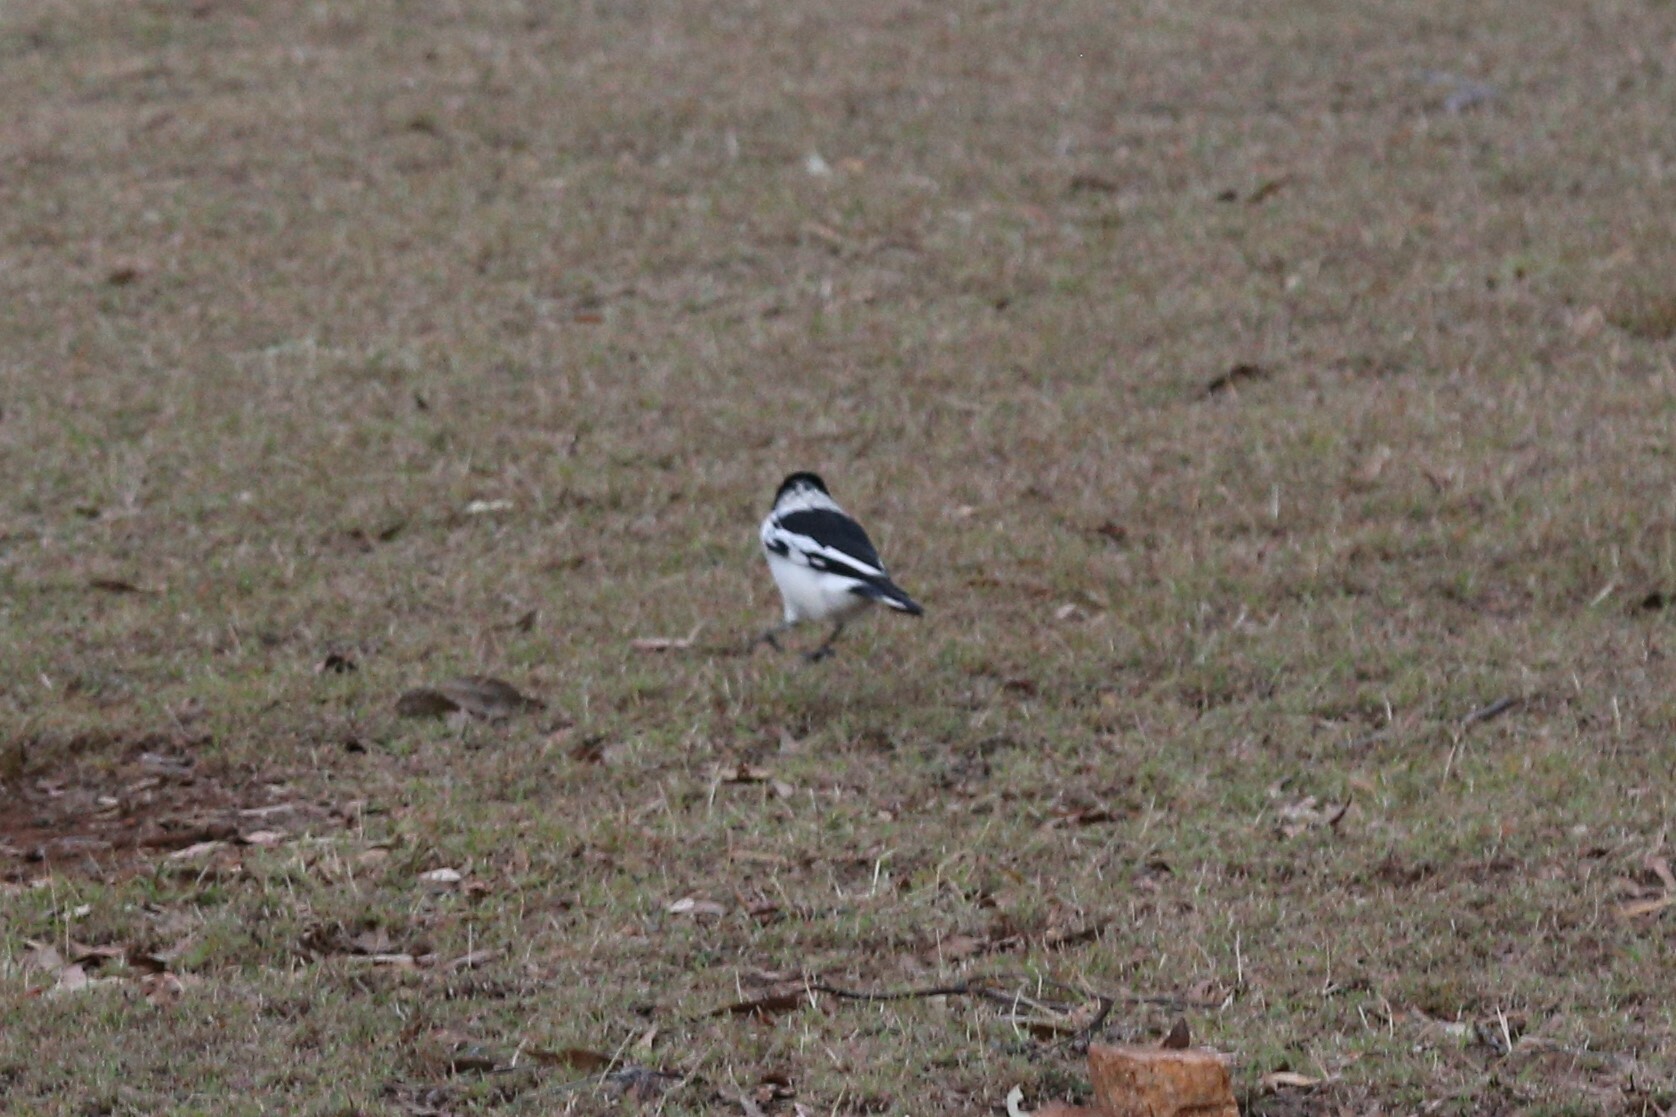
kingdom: Animalia
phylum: Chordata
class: Aves
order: Passeriformes
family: Cracticidae
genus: Cracticus
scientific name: Cracticus nigrogularis
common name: Pied butcherbird
